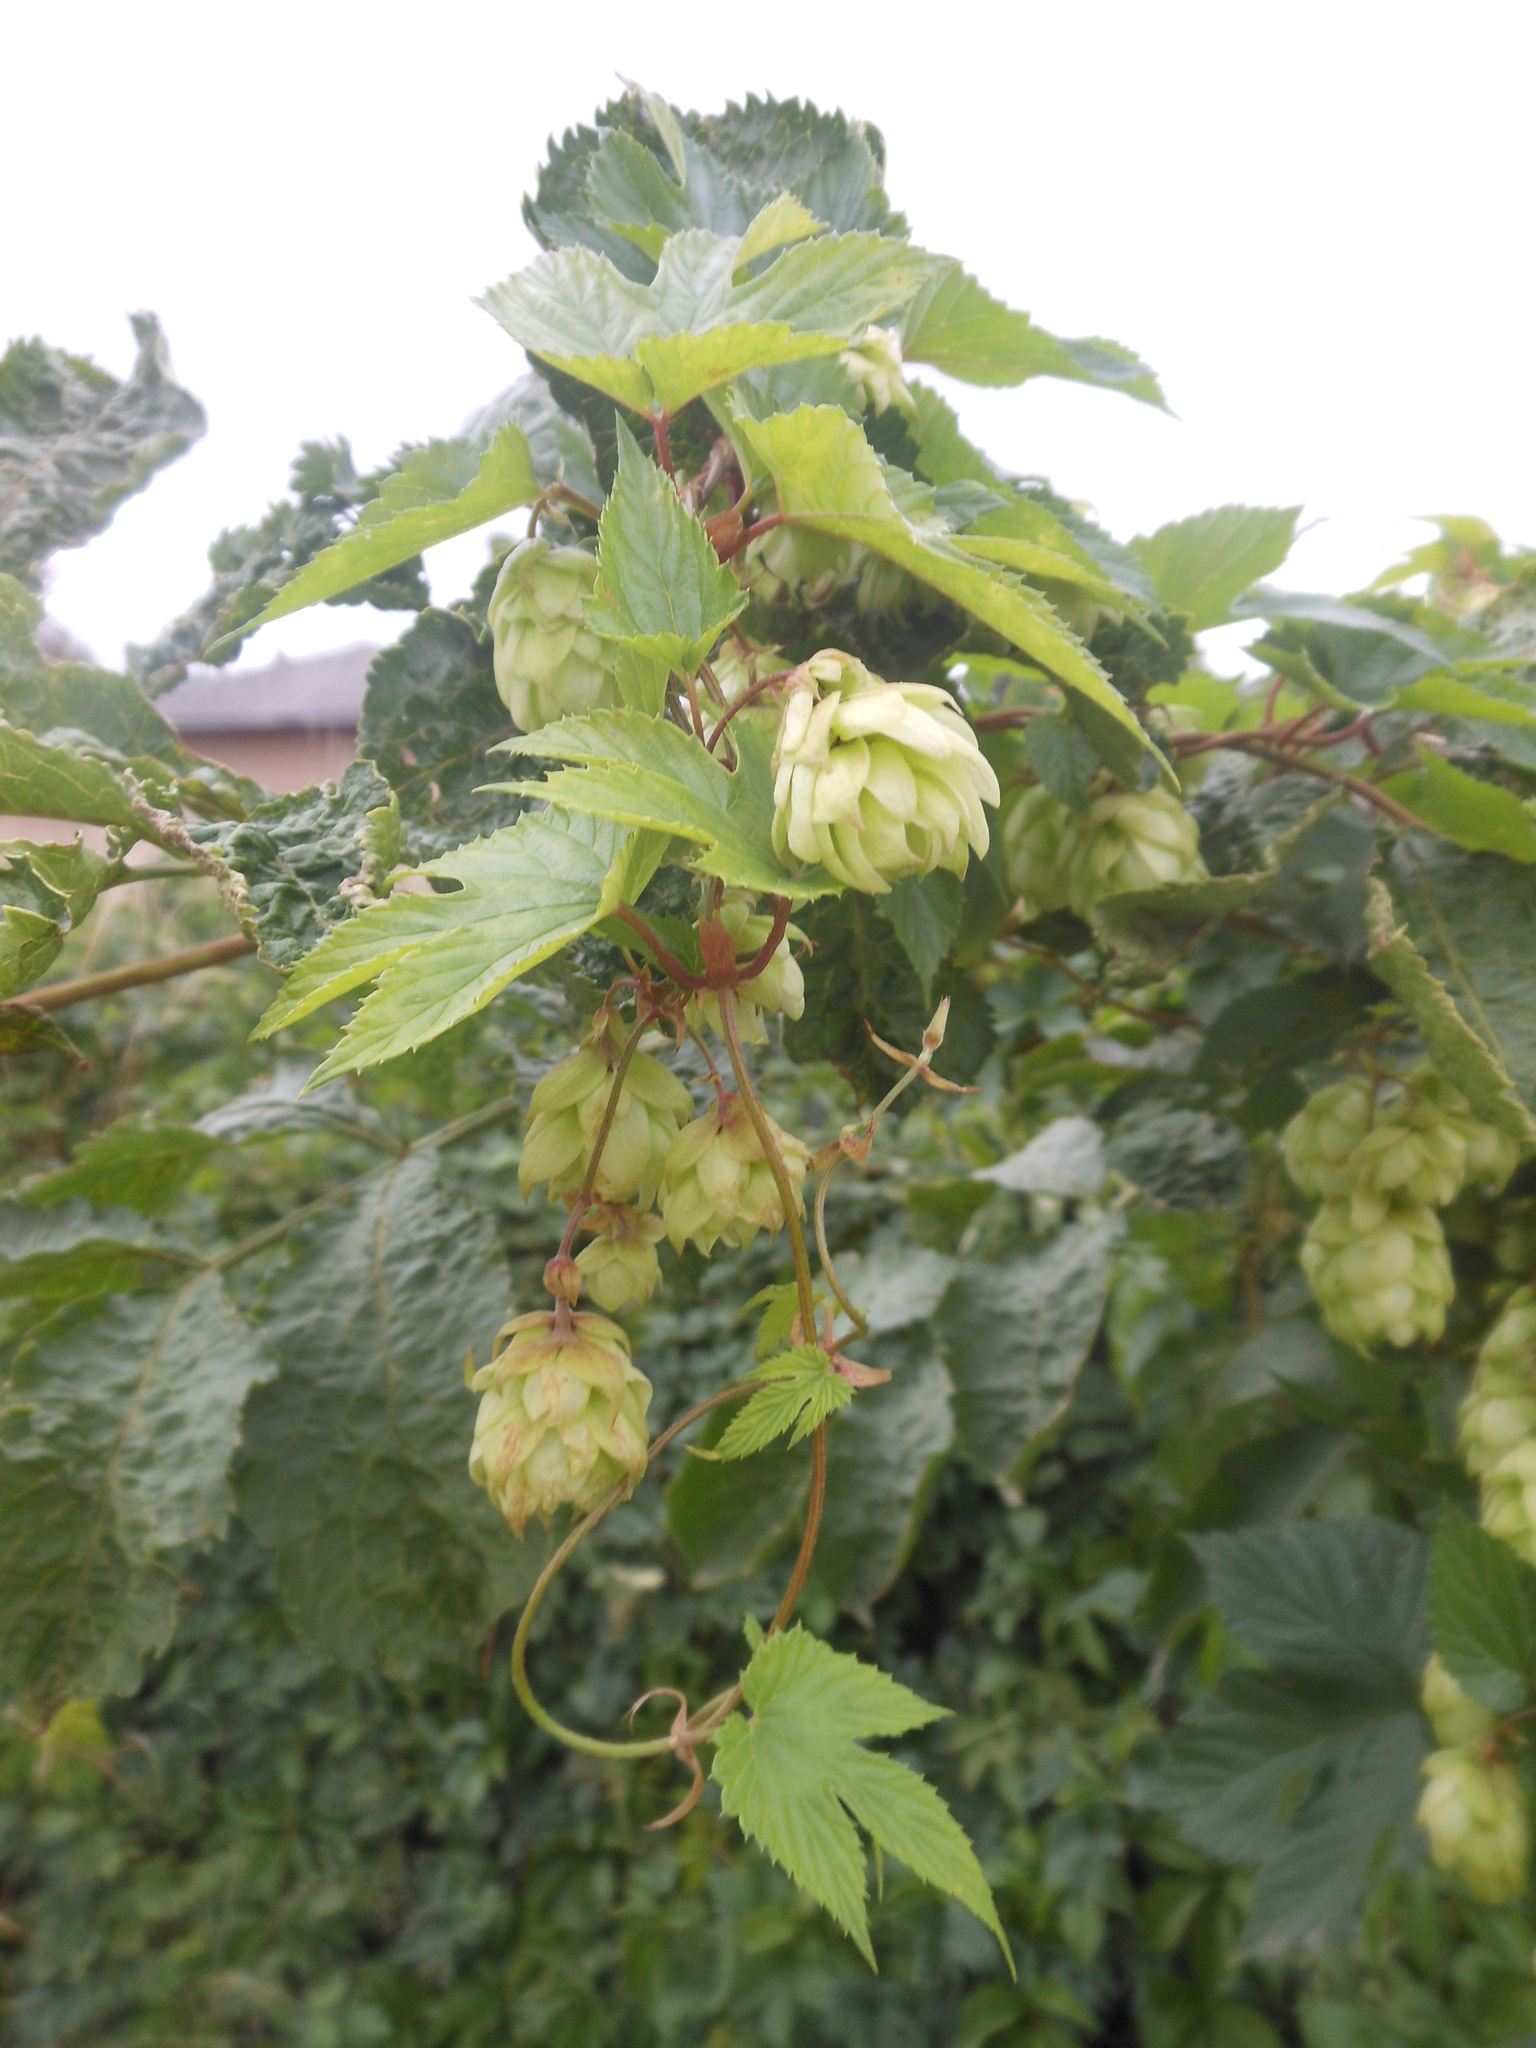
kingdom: Plantae
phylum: Tracheophyta
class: Magnoliopsida
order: Rosales
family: Cannabaceae
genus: Humulus
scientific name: Humulus lupulus
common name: Hop
